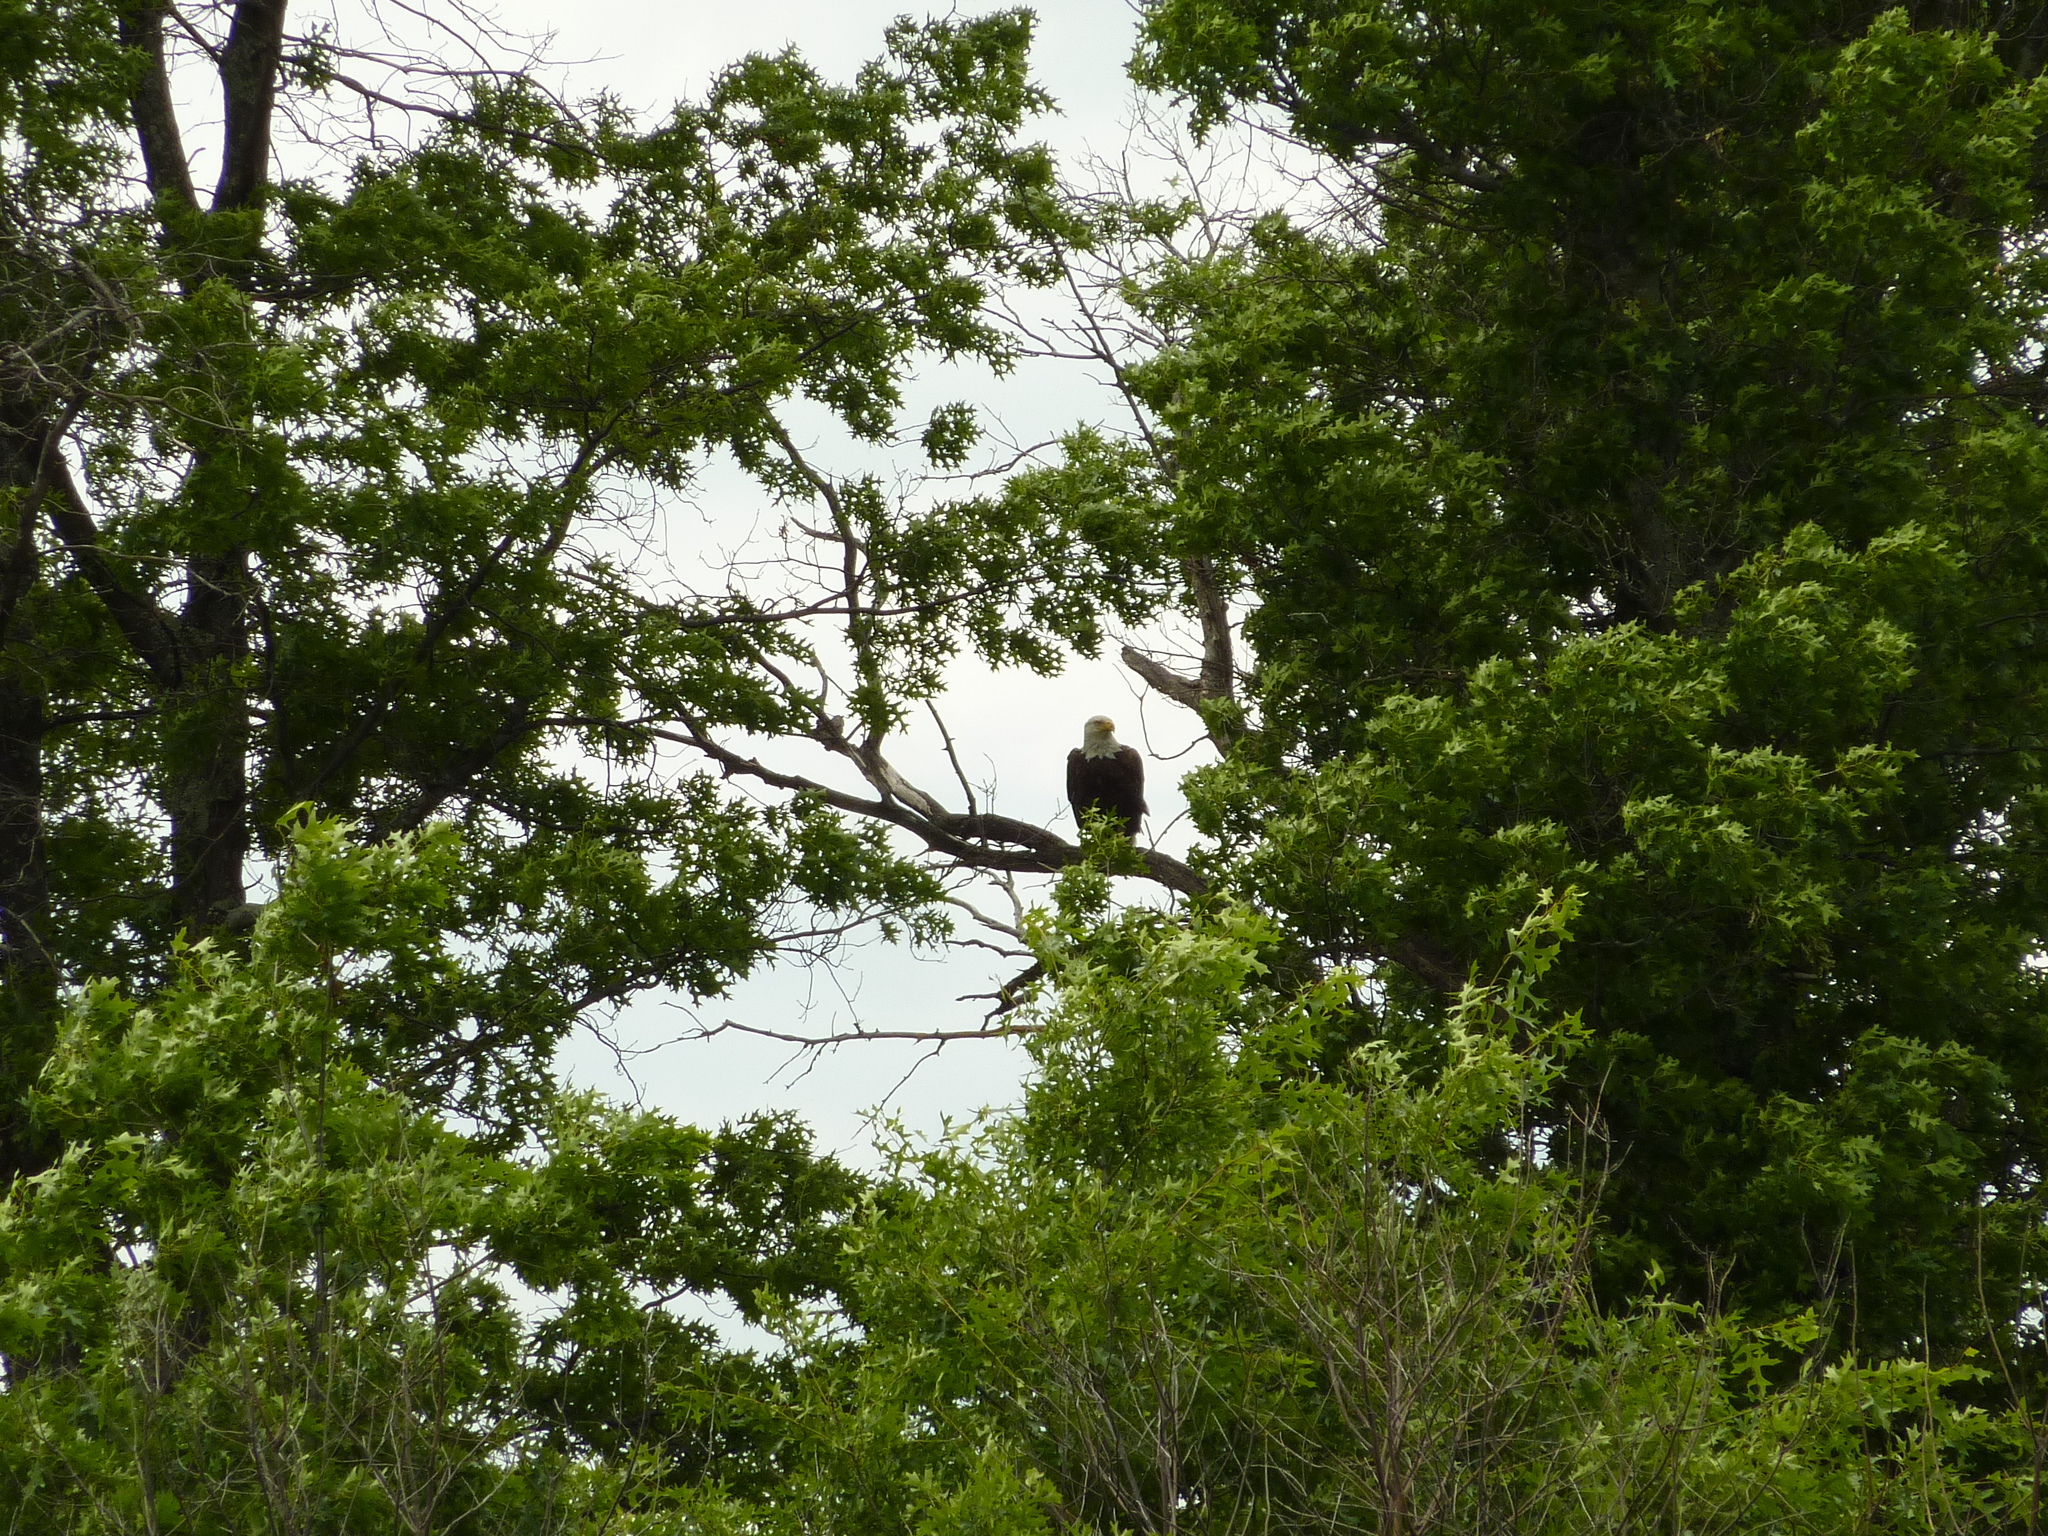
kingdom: Animalia
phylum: Chordata
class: Aves
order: Accipitriformes
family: Accipitridae
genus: Haliaeetus
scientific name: Haliaeetus leucocephalus
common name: Bald eagle
